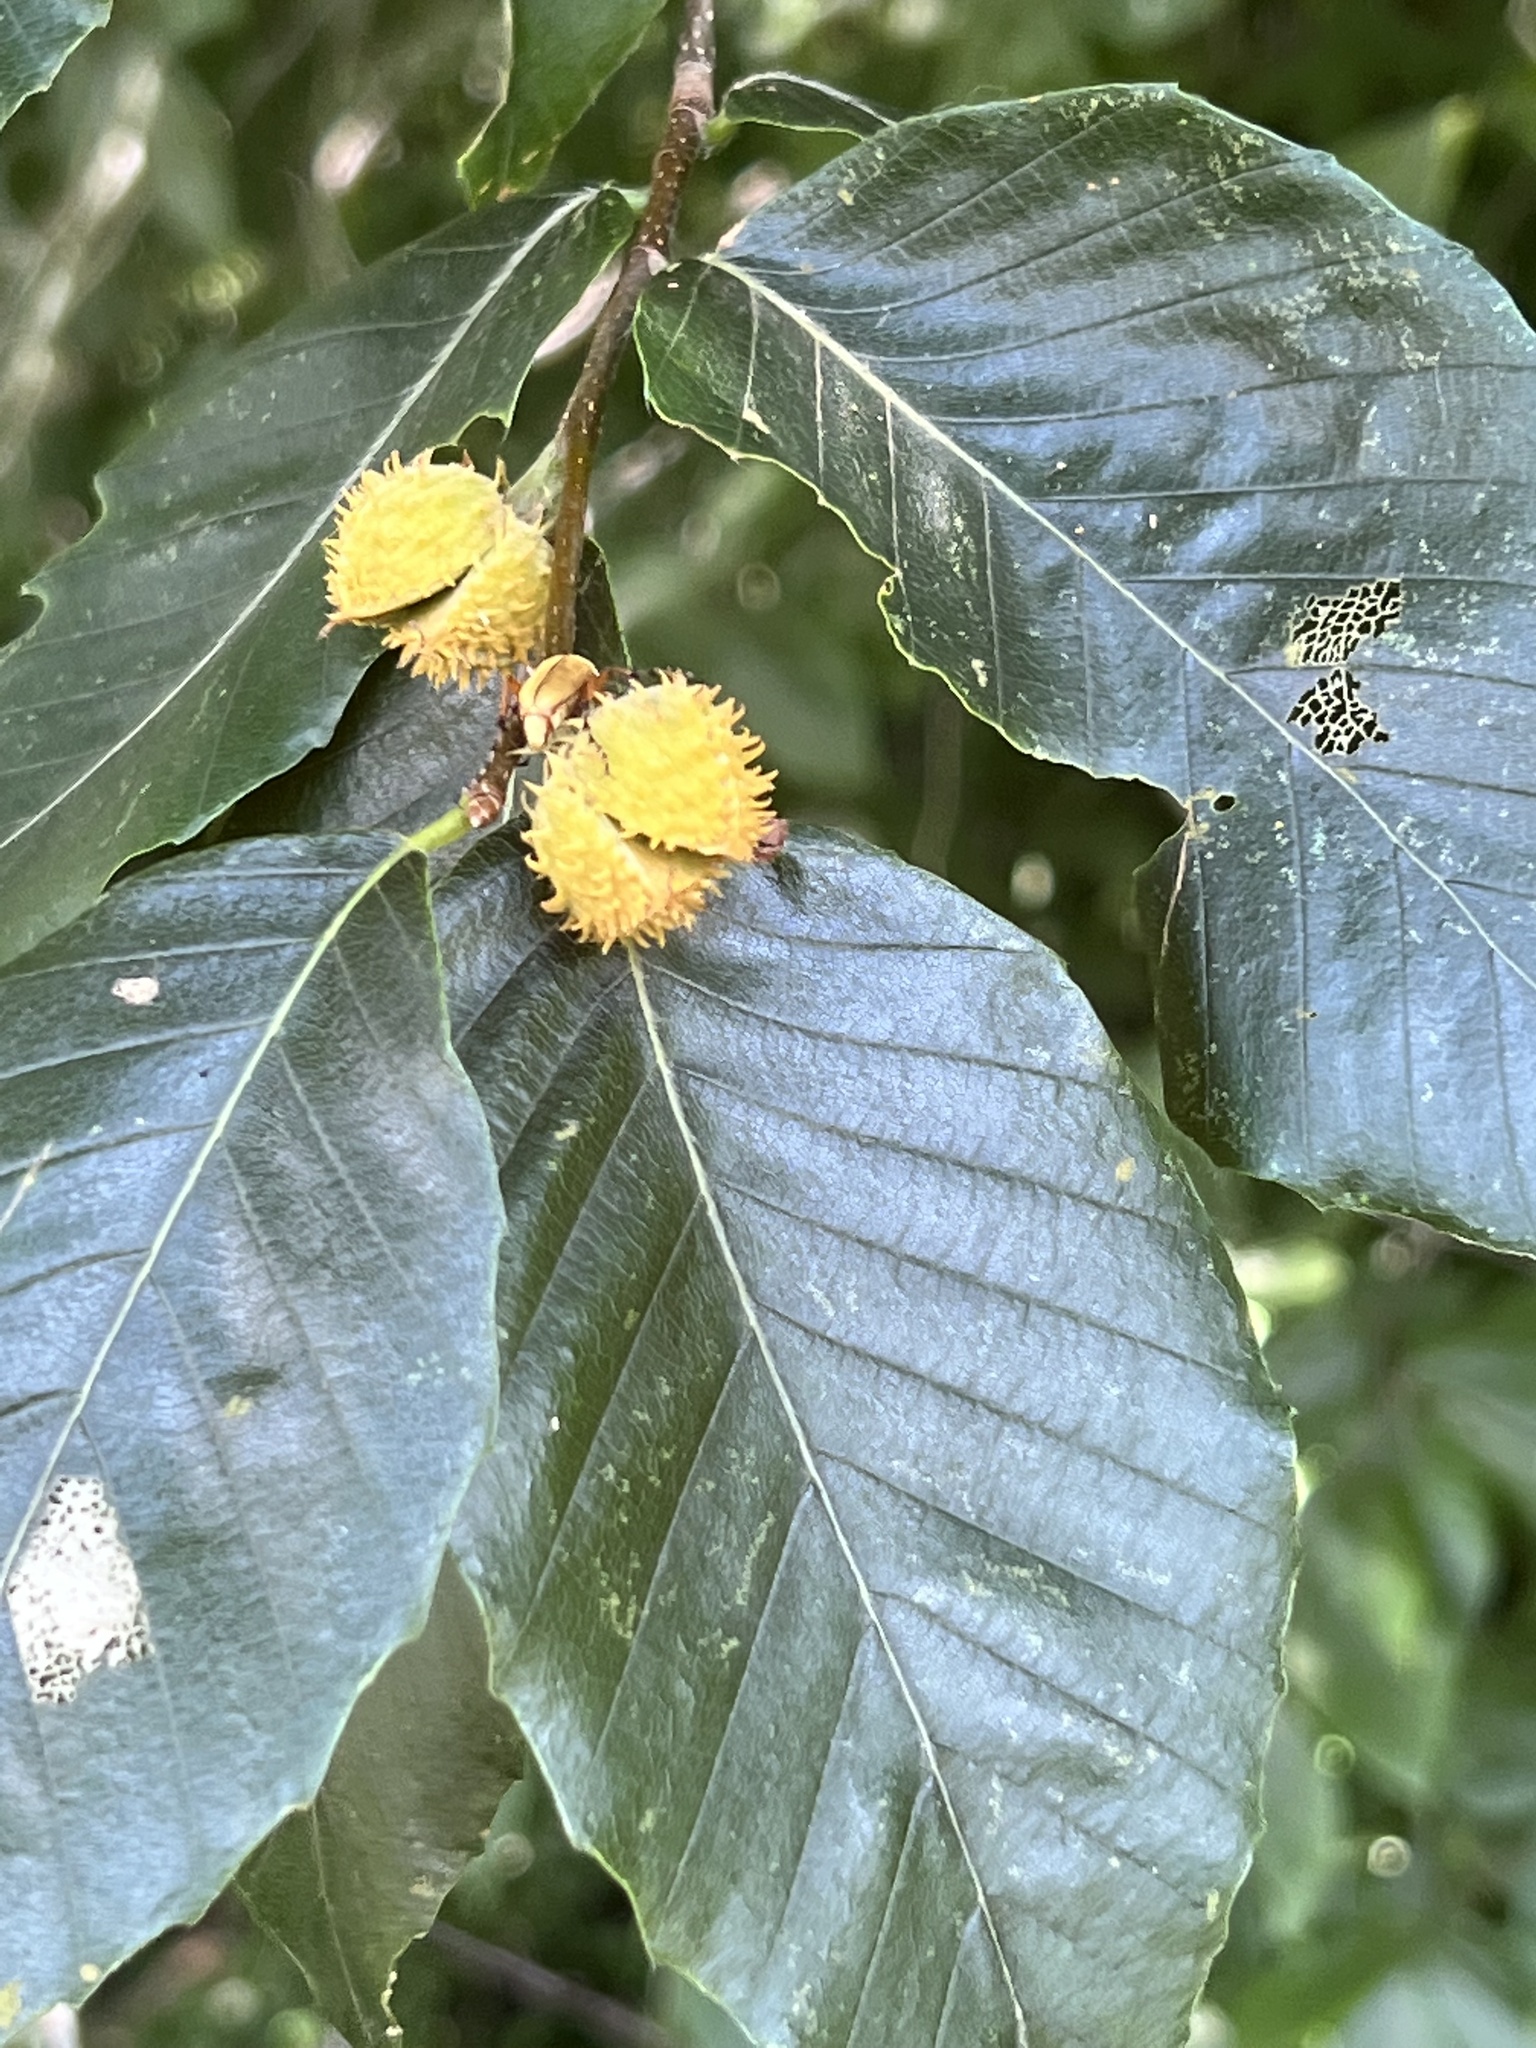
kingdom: Plantae
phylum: Tracheophyta
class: Magnoliopsida
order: Fagales
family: Fagaceae
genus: Fagus
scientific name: Fagus grandifolia
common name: American beech
